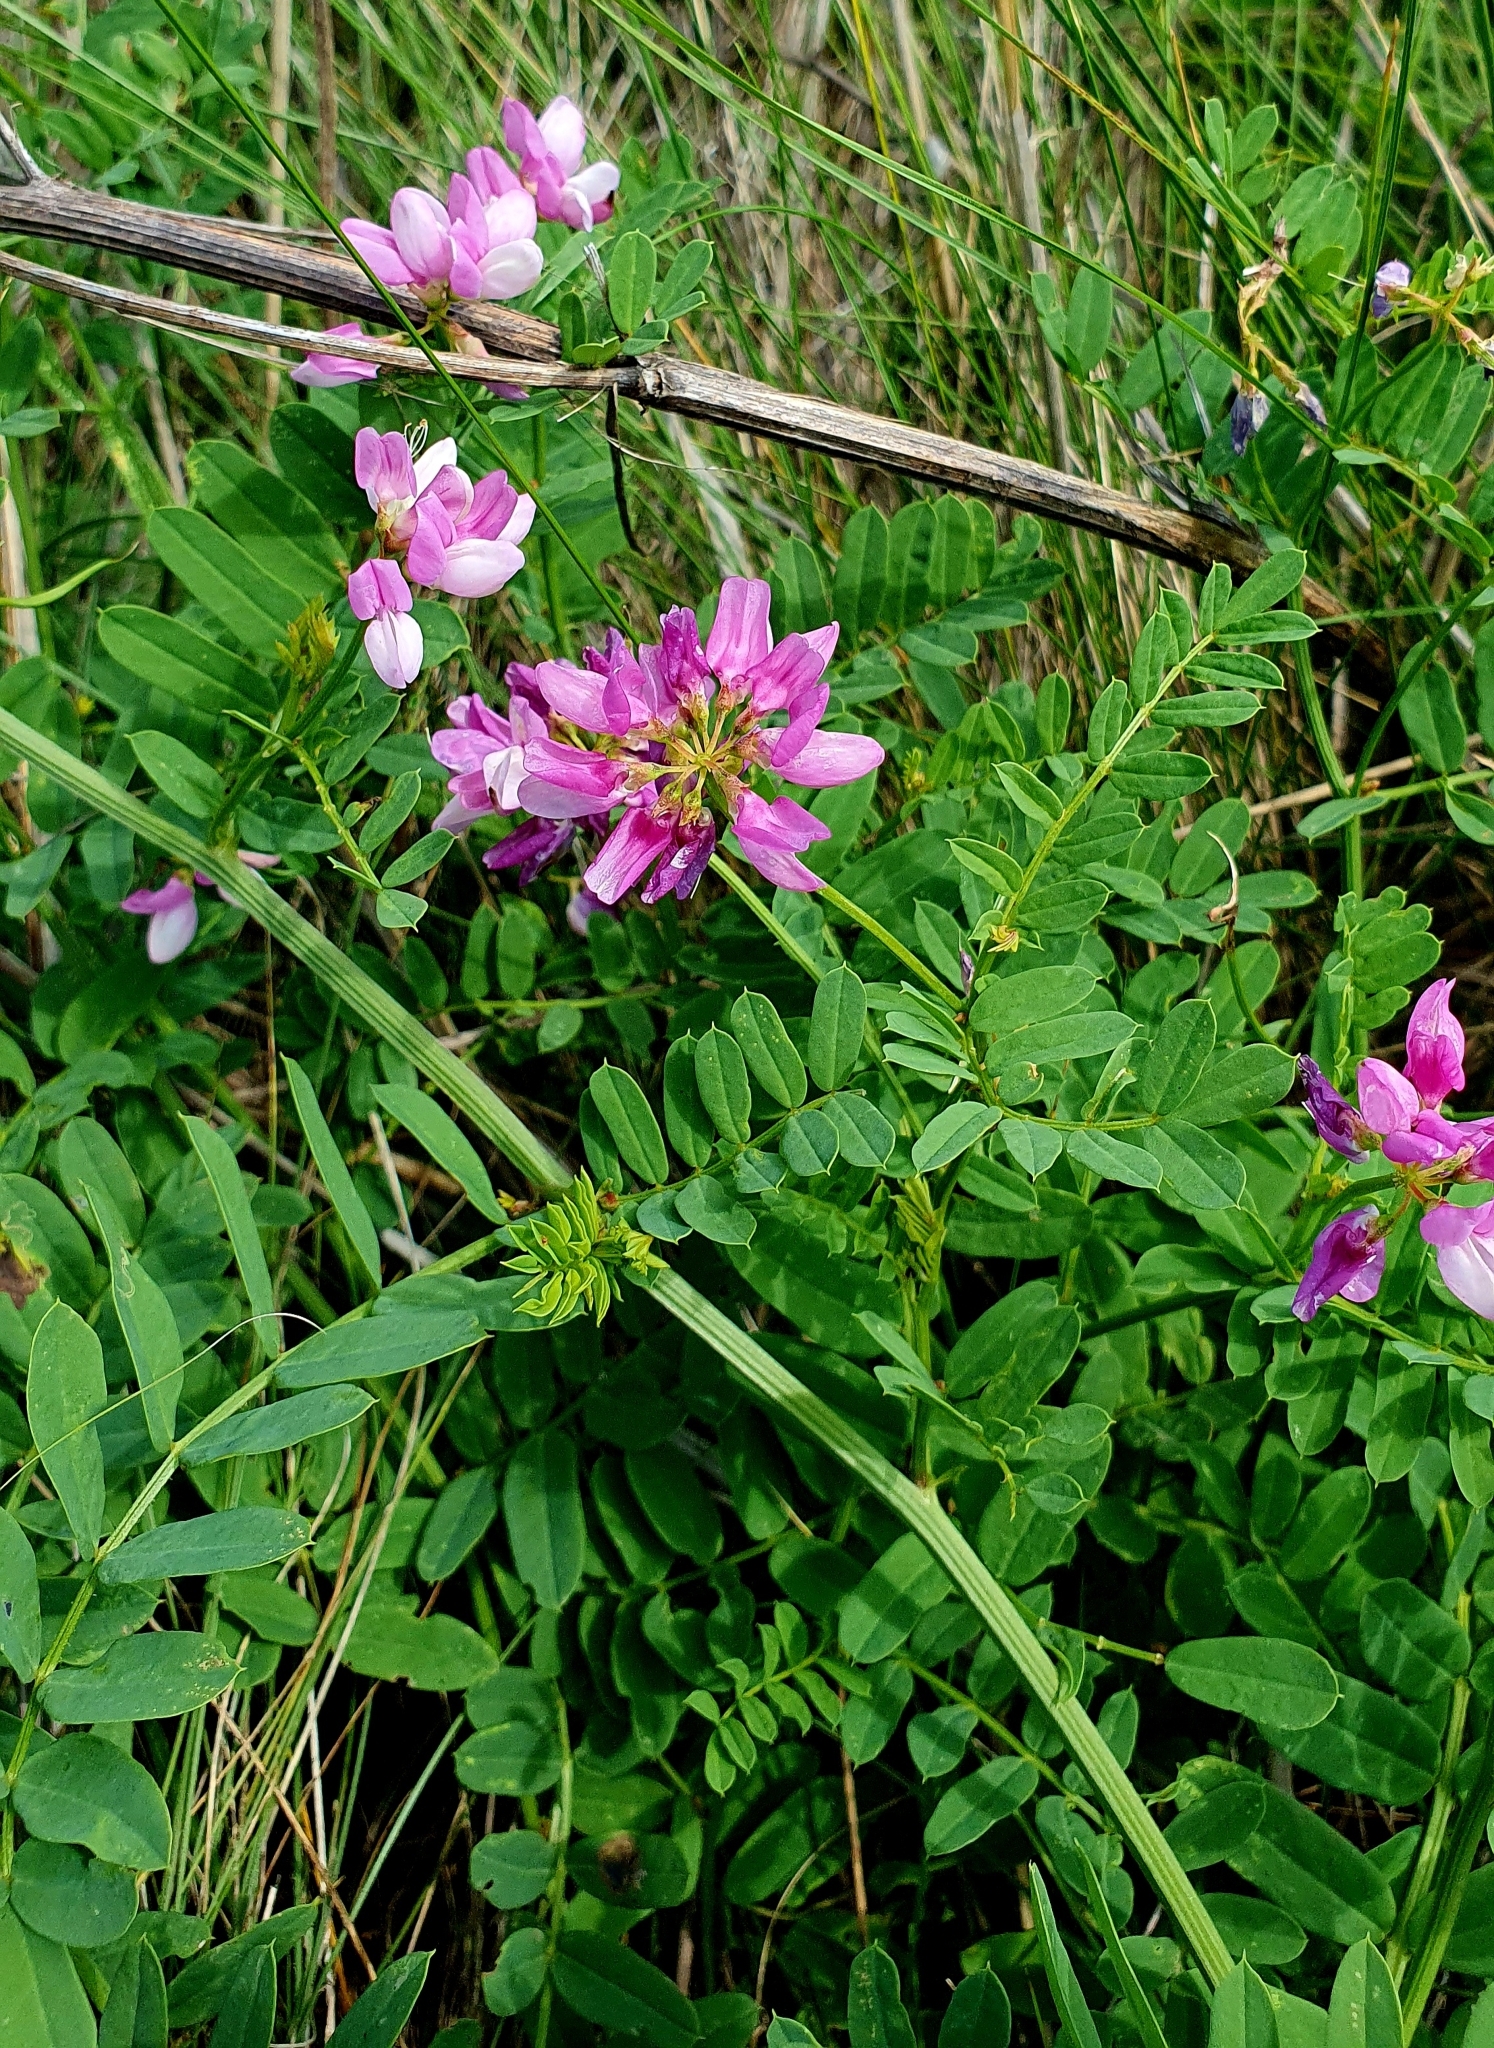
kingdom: Plantae
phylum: Tracheophyta
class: Magnoliopsida
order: Fabales
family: Fabaceae
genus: Coronilla
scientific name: Coronilla varia
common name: Crownvetch
